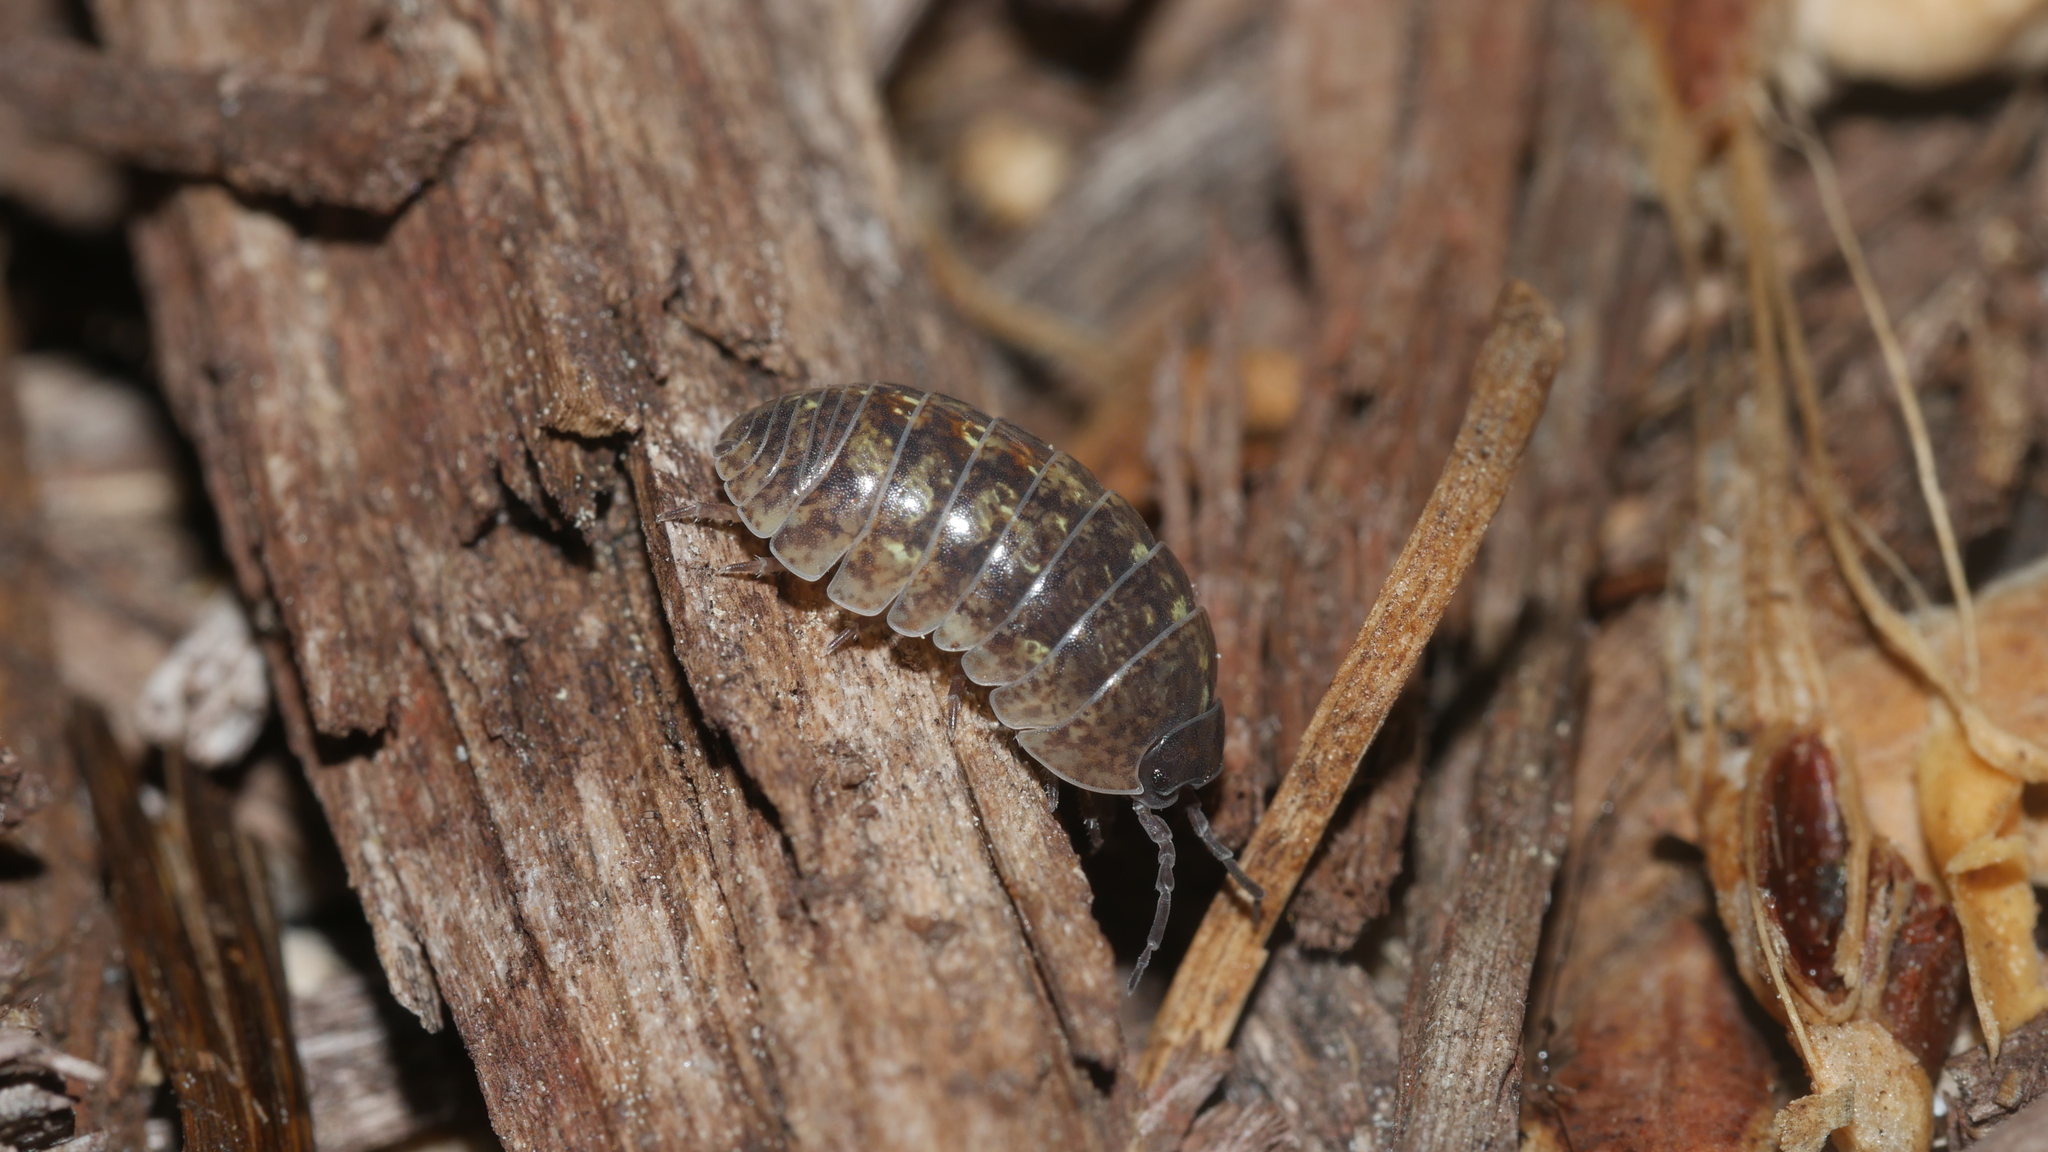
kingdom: Animalia
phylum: Arthropoda
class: Malacostraca
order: Isopoda
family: Armadillidiidae
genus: Armadillidium
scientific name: Armadillidium vulgare
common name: Common pill woodlouse
